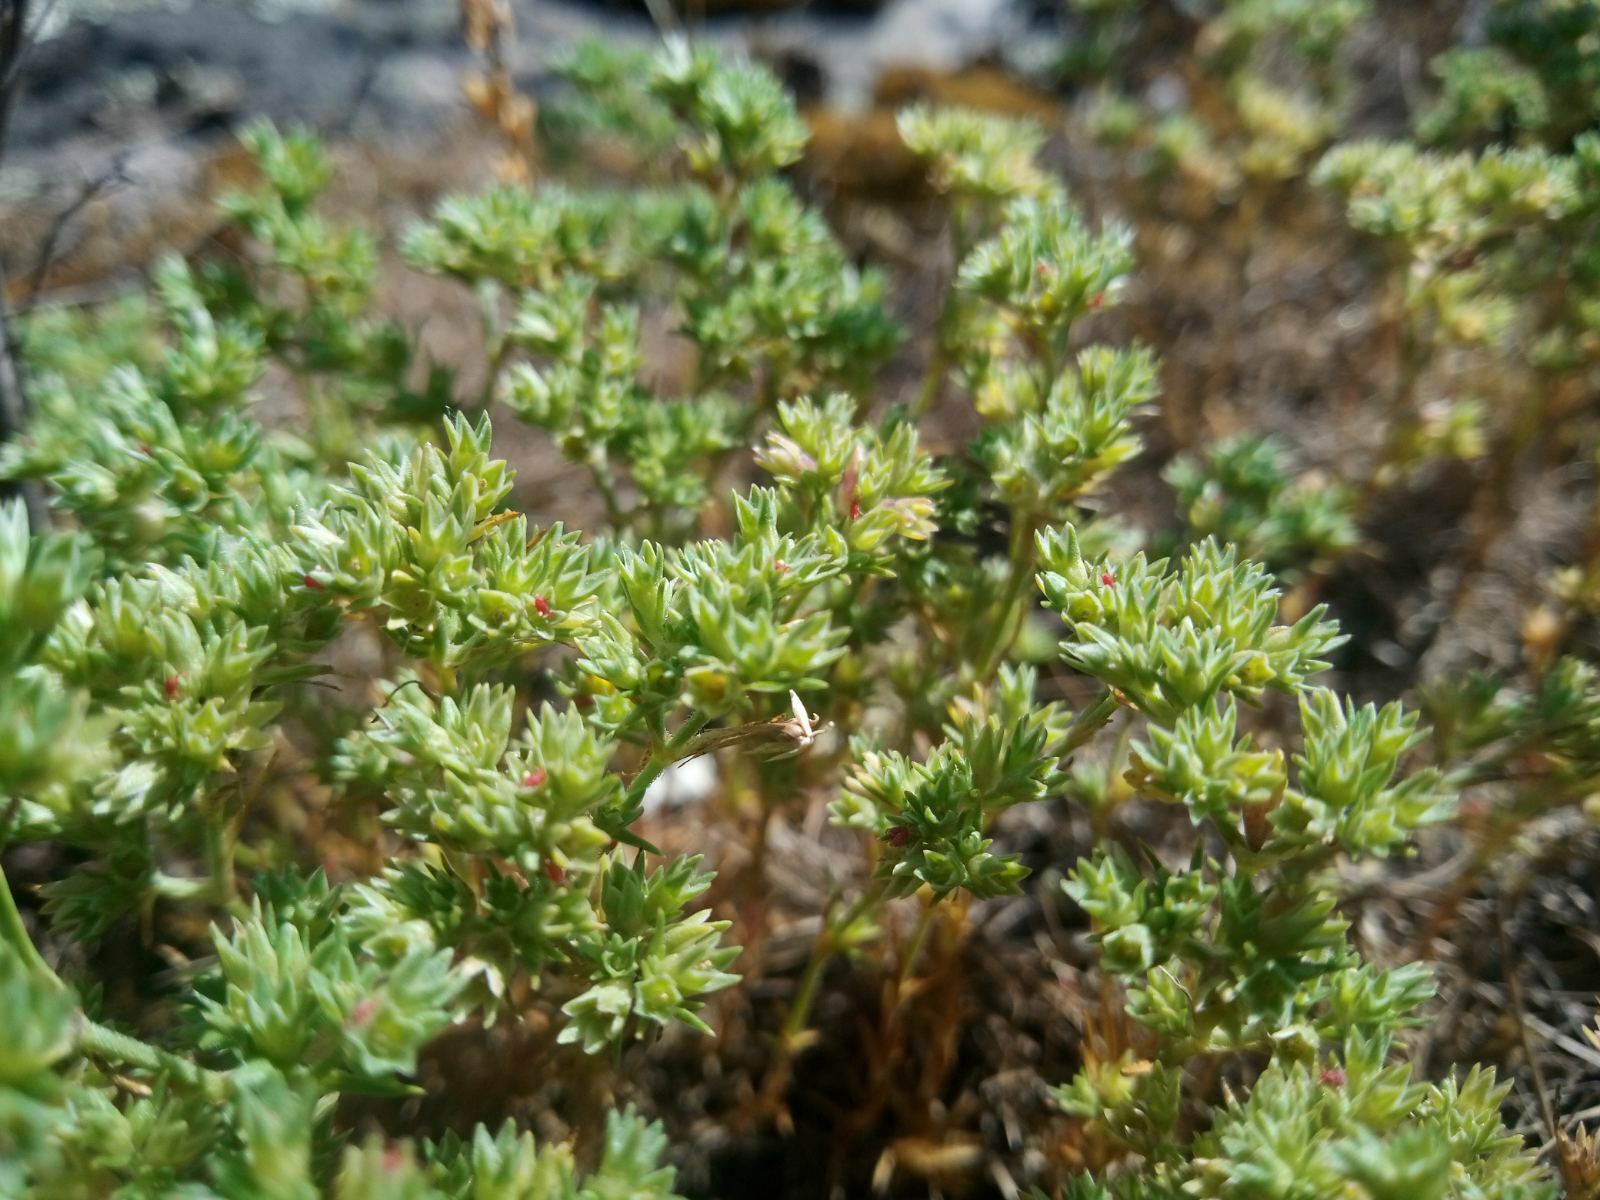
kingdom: Plantae
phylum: Tracheophyta
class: Magnoliopsida
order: Caryophyllales
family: Caryophyllaceae
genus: Scleranthus
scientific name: Scleranthus annuus
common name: Annual knawel
